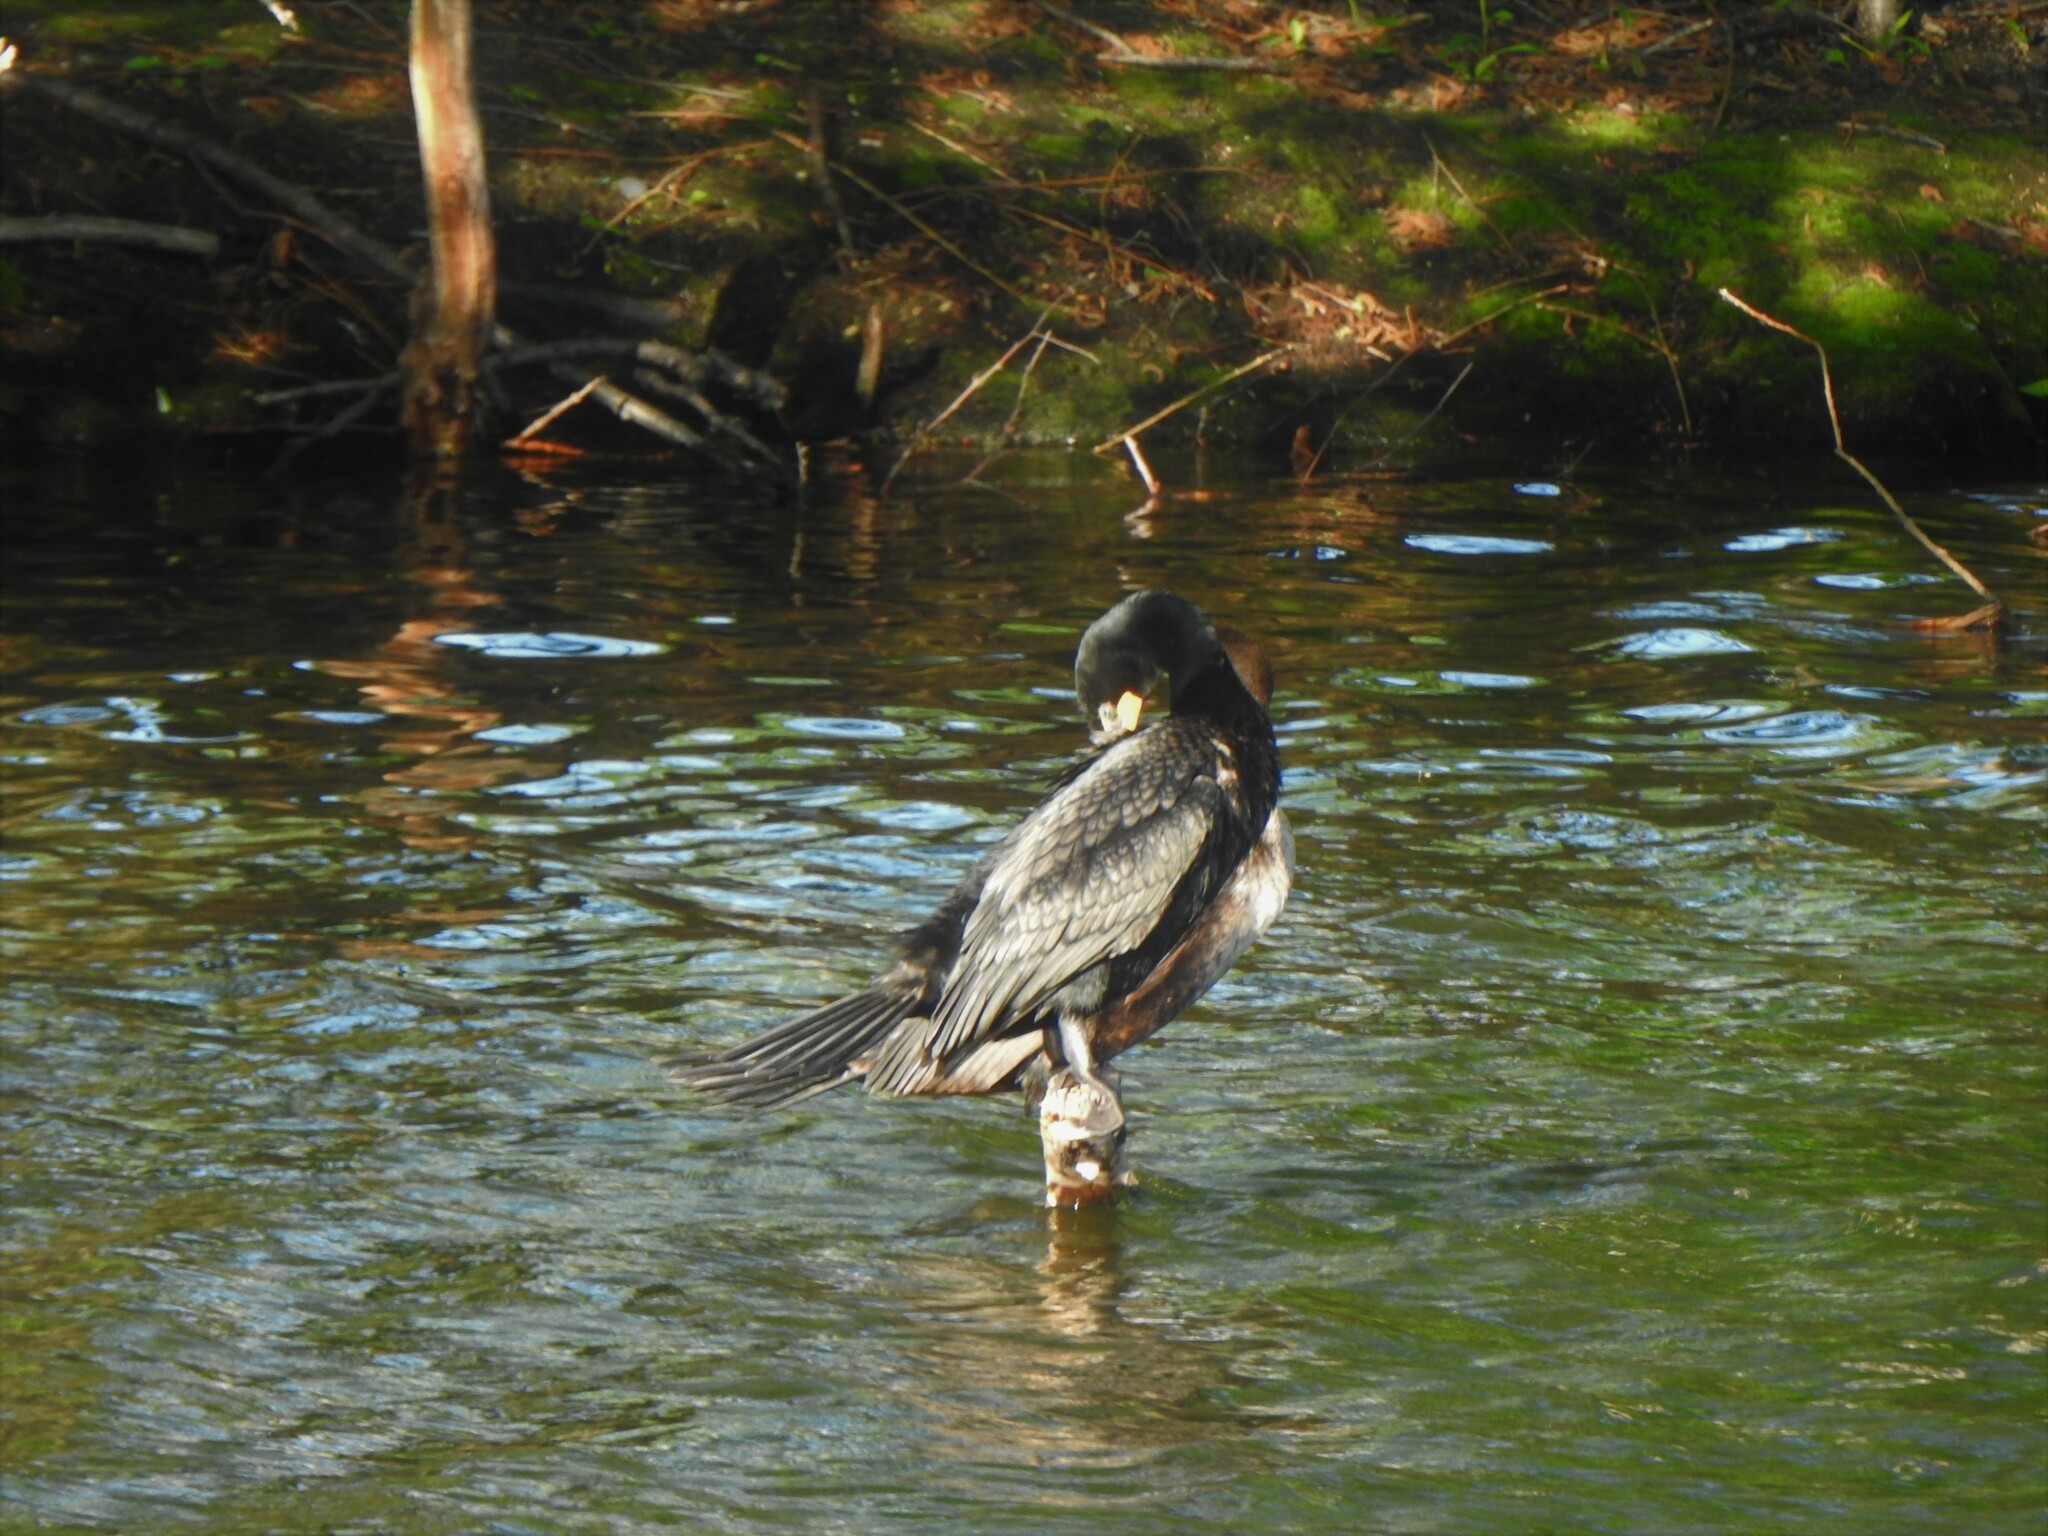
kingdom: Animalia
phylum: Chordata
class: Aves
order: Suliformes
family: Phalacrocoracidae
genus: Phalacrocorax
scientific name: Phalacrocorax auritus
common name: Double-crested cormorant
